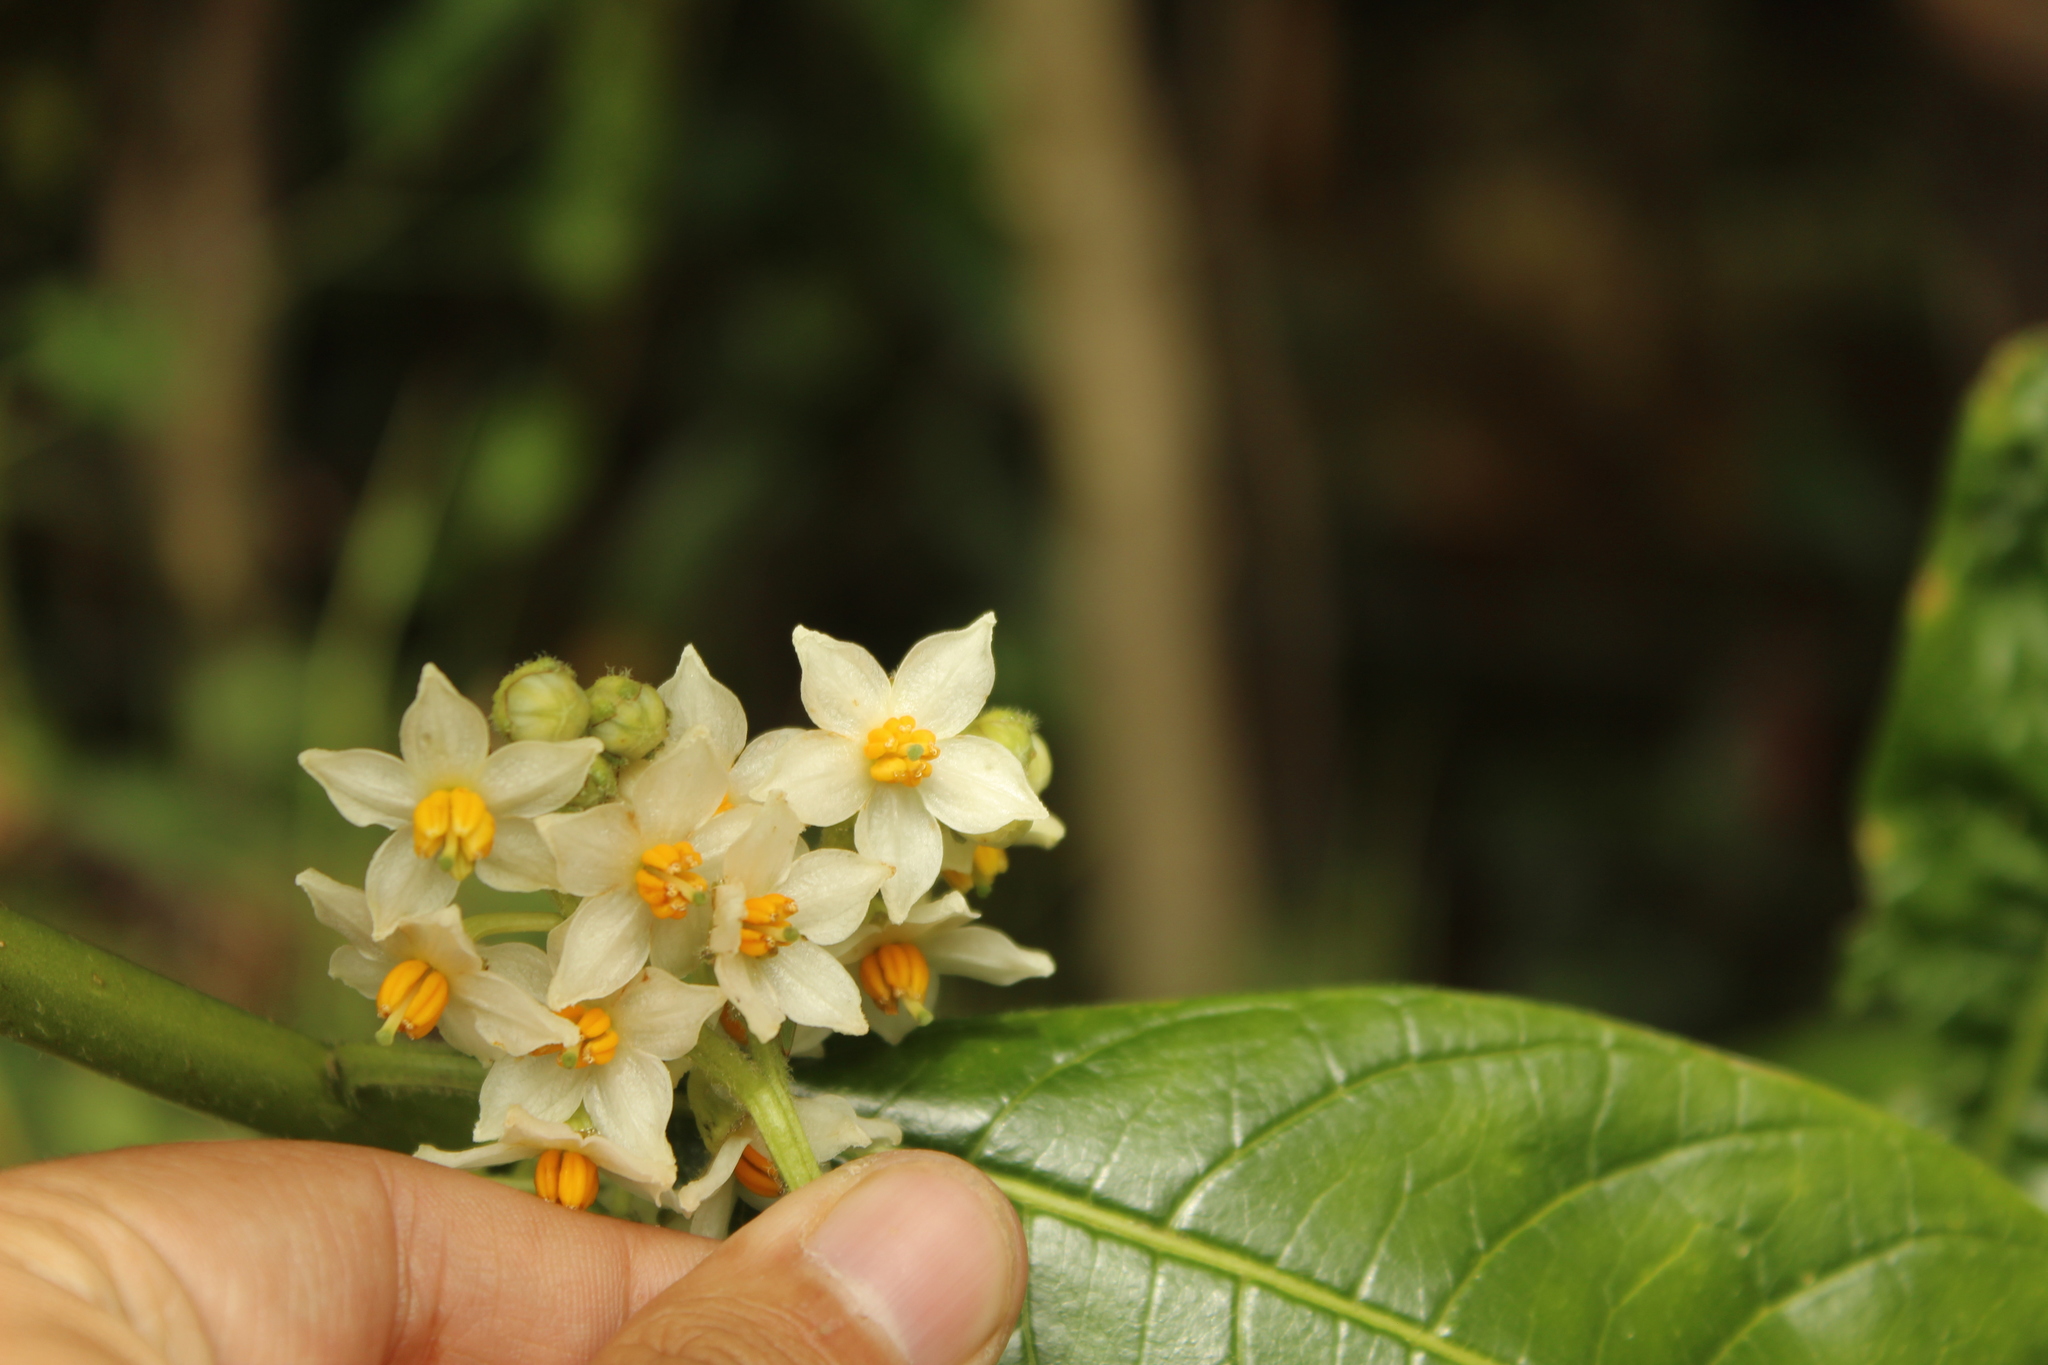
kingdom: Plantae
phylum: Tracheophyta
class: Magnoliopsida
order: Solanales
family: Solanaceae
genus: Solanum
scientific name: Solanum oblongifolium
